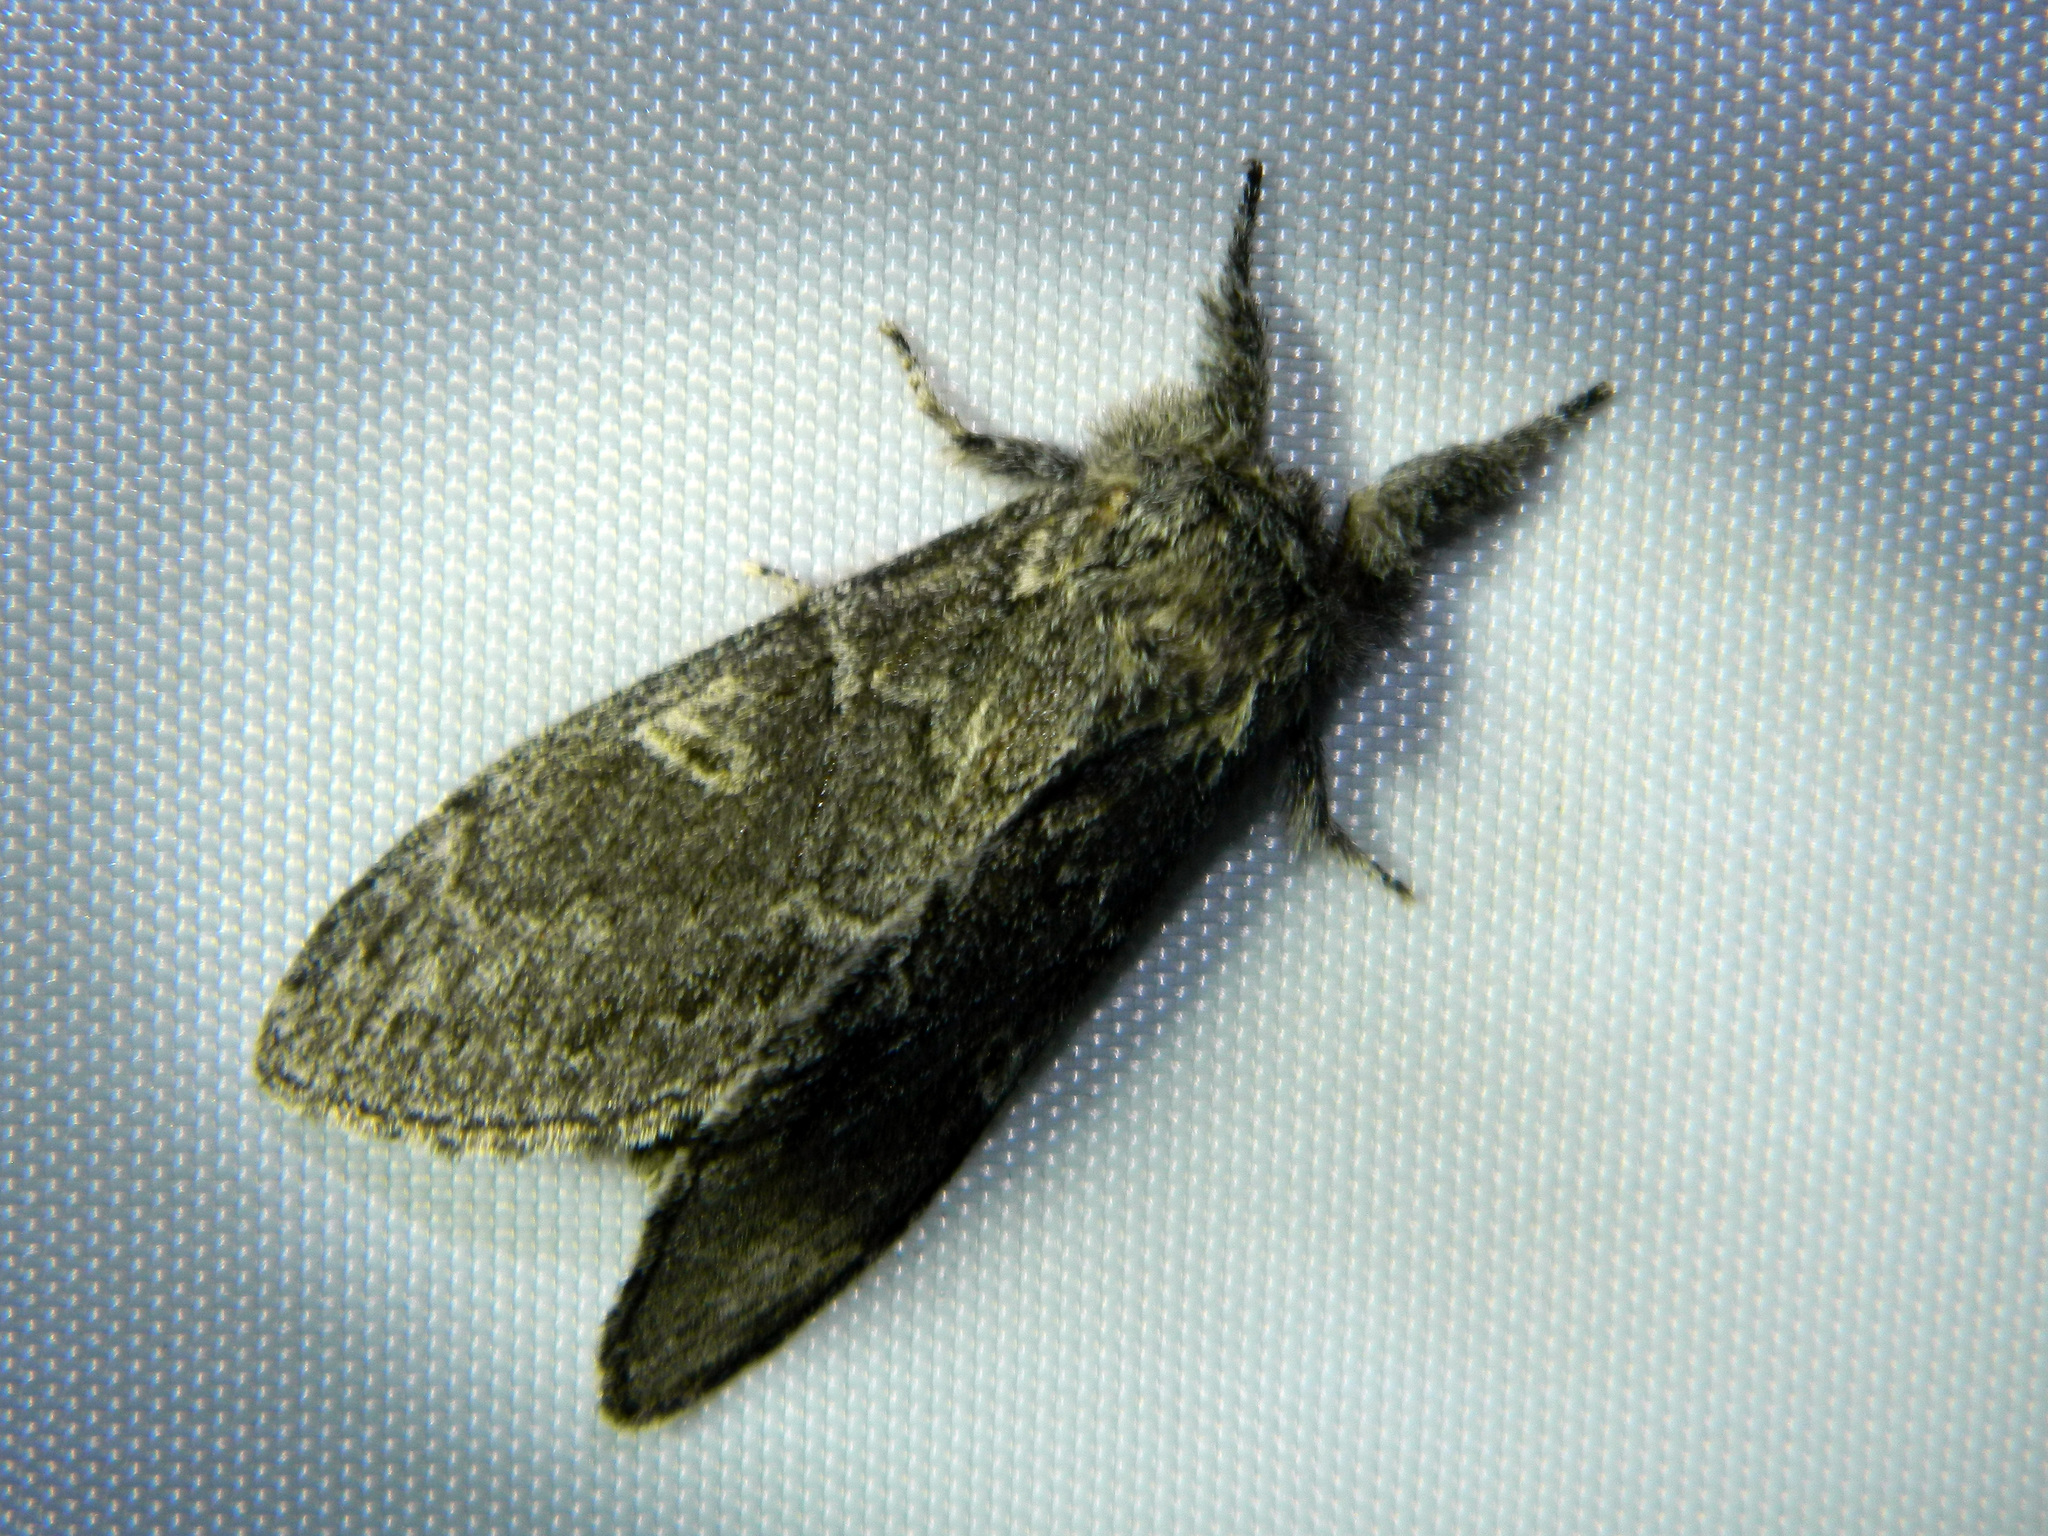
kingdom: Animalia
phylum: Arthropoda
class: Insecta
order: Lepidoptera
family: Notodontidae
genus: Notodonta
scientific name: Notodonta torva
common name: Large dark prominent
